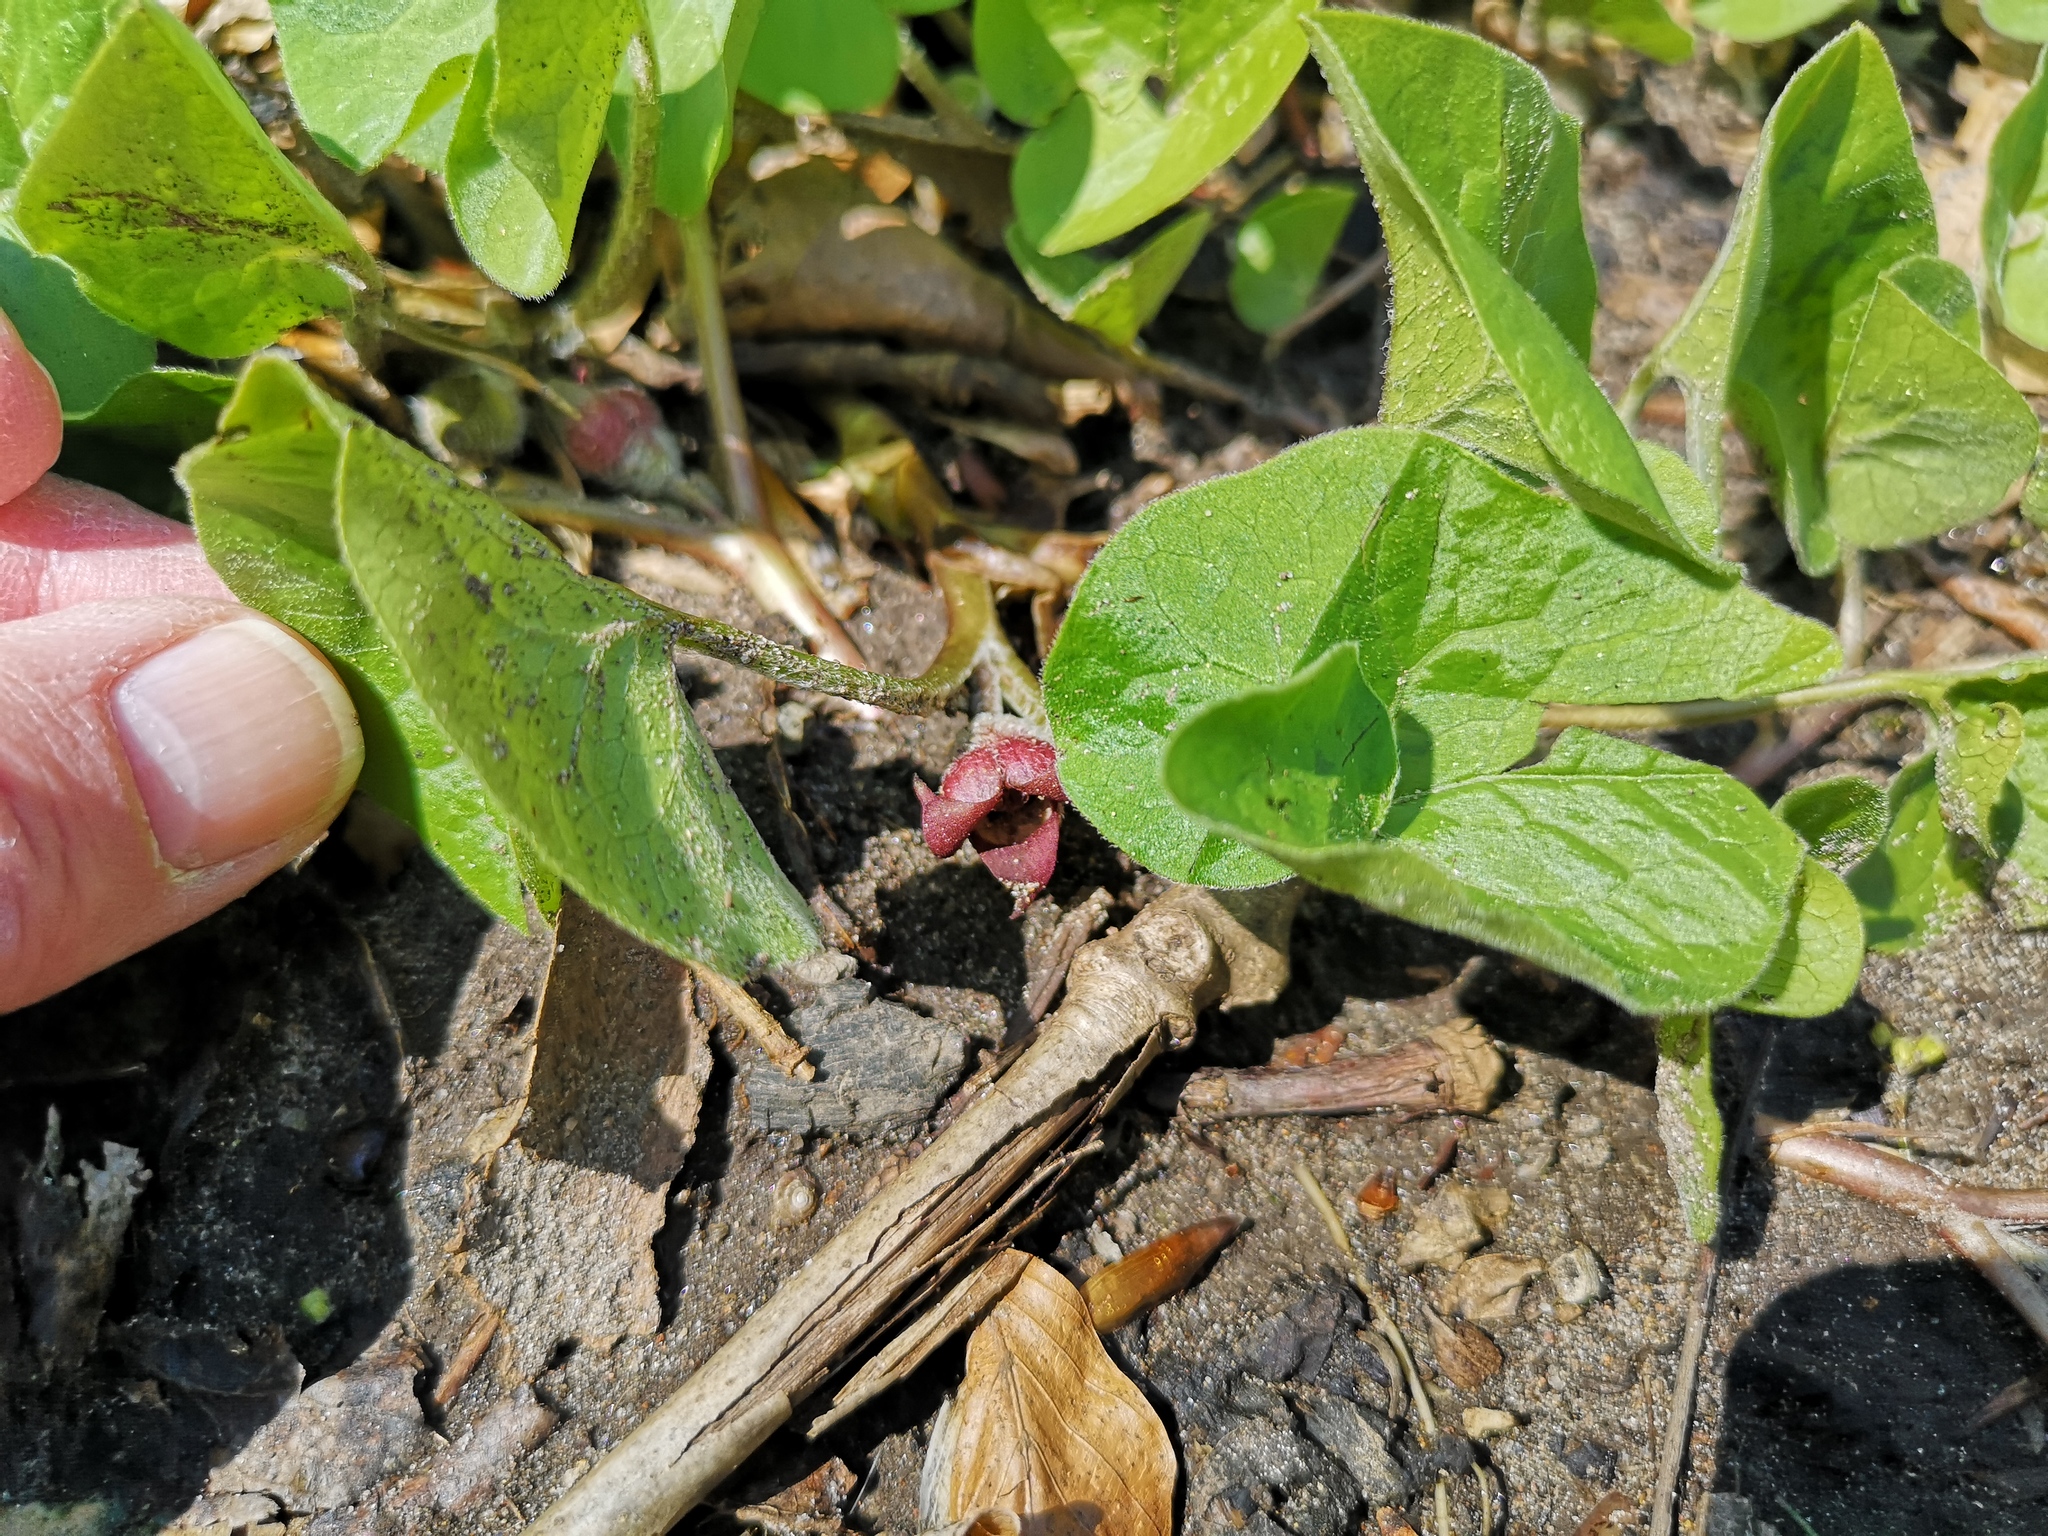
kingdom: Plantae
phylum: Tracheophyta
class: Magnoliopsida
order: Piperales
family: Aristolochiaceae
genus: Asarum
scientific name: Asarum canadense
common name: Wild ginger
